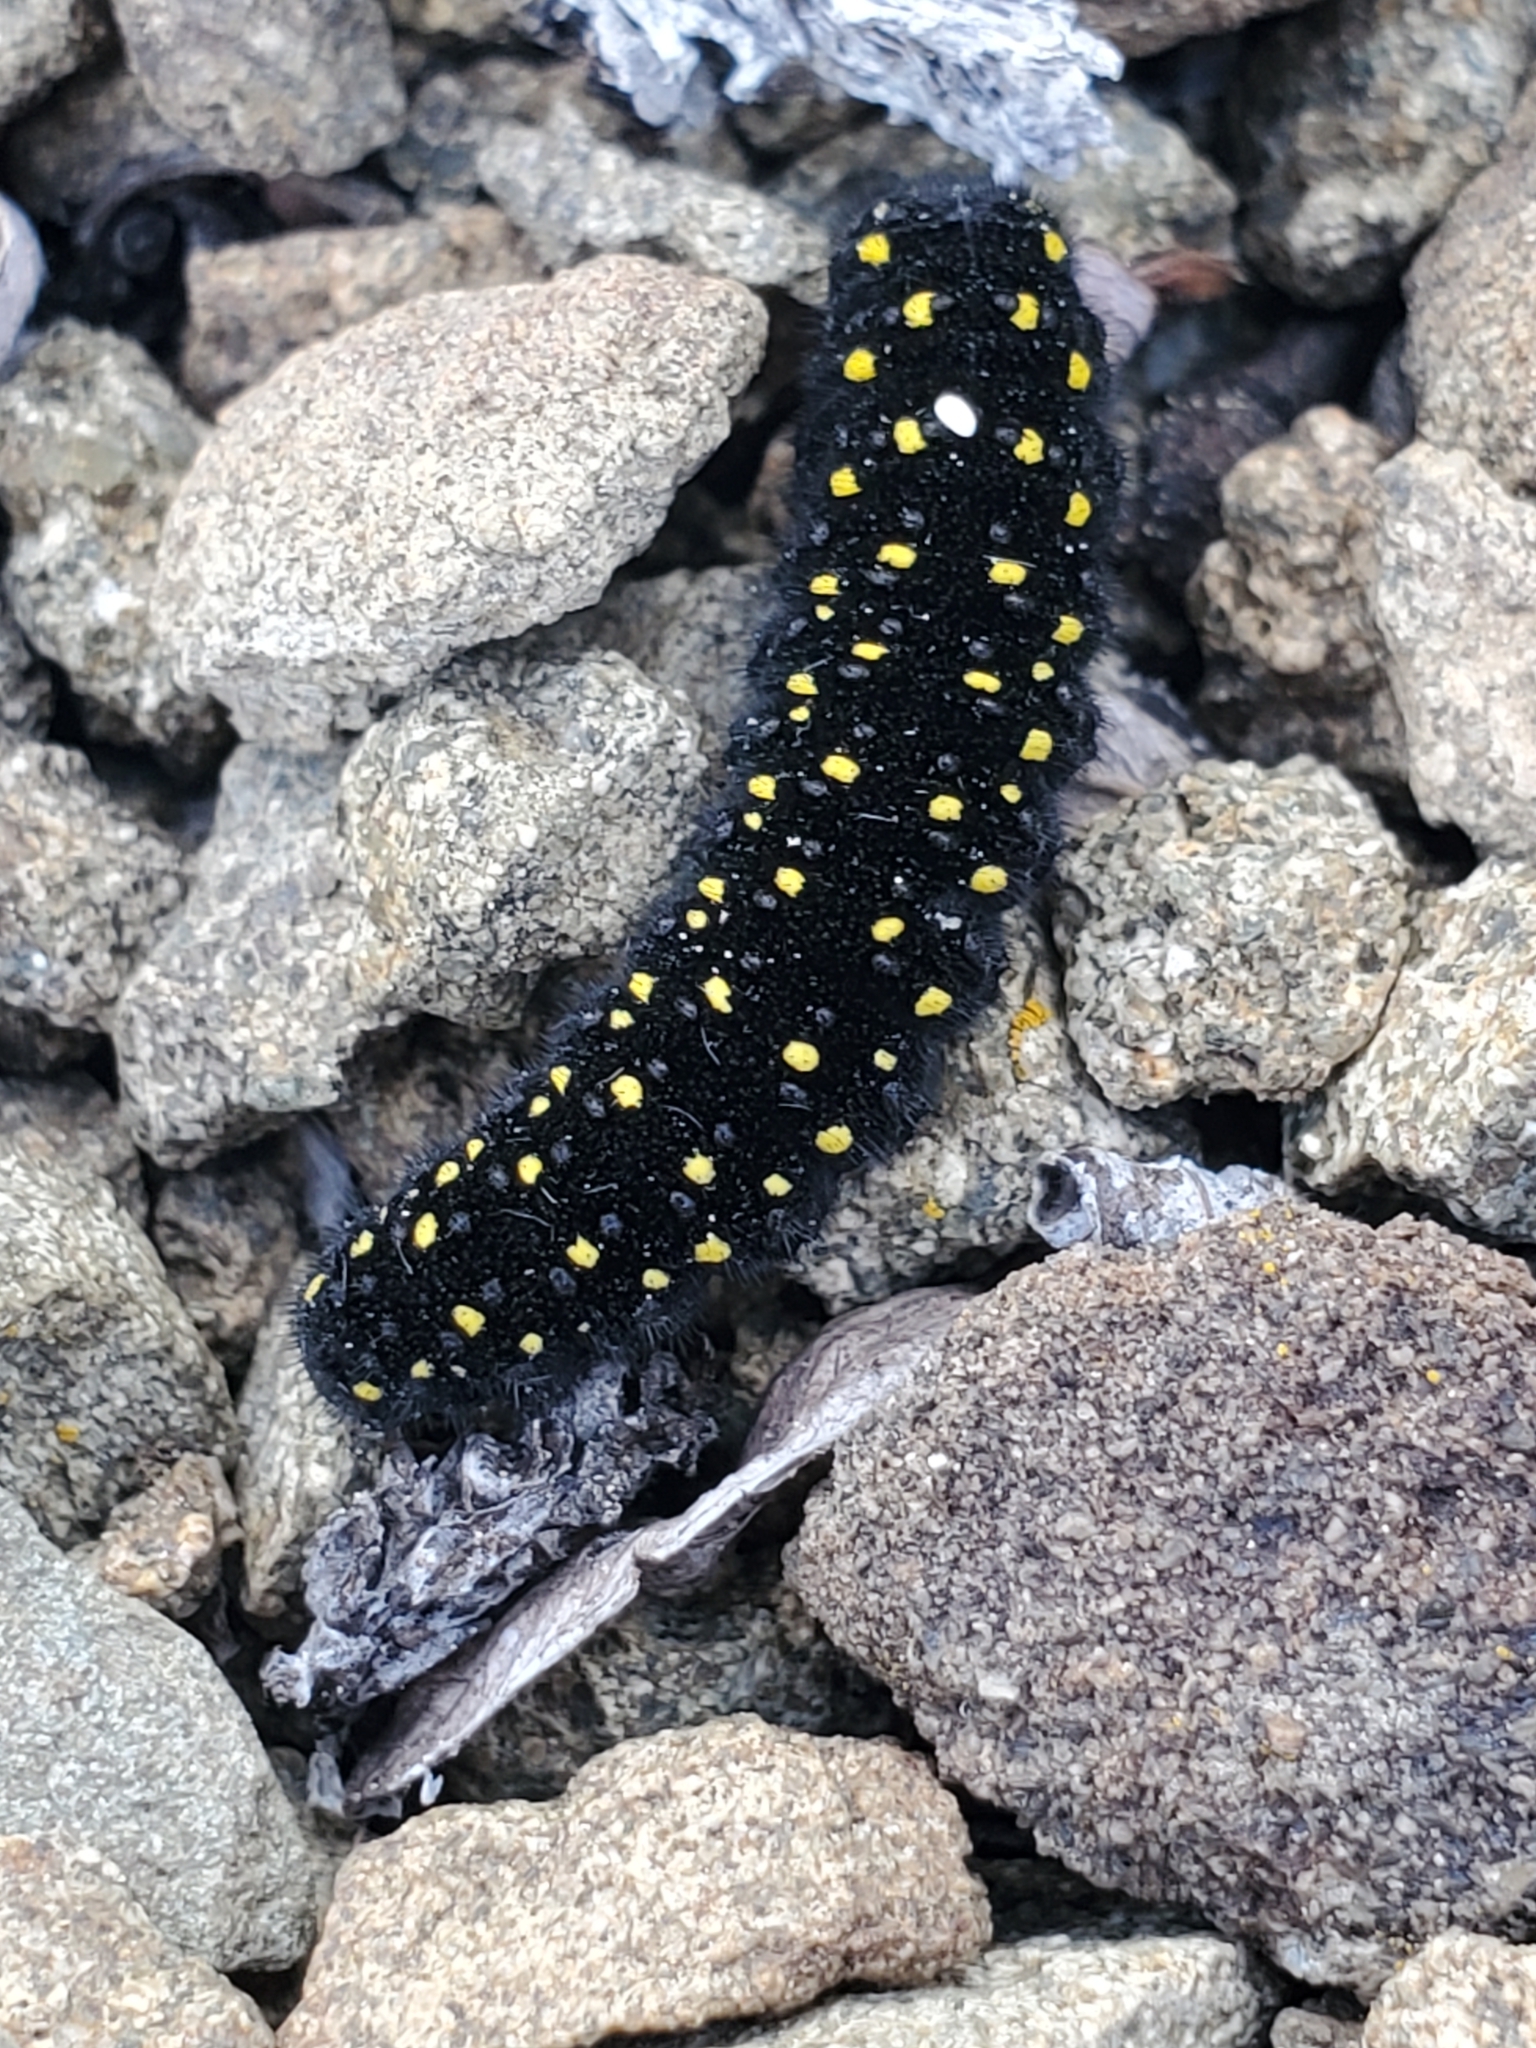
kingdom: Animalia
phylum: Arthropoda
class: Insecta
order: Lepidoptera
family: Papilionidae
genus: Parnassius
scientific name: Parnassius smintheus
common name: Mountain parnassian
